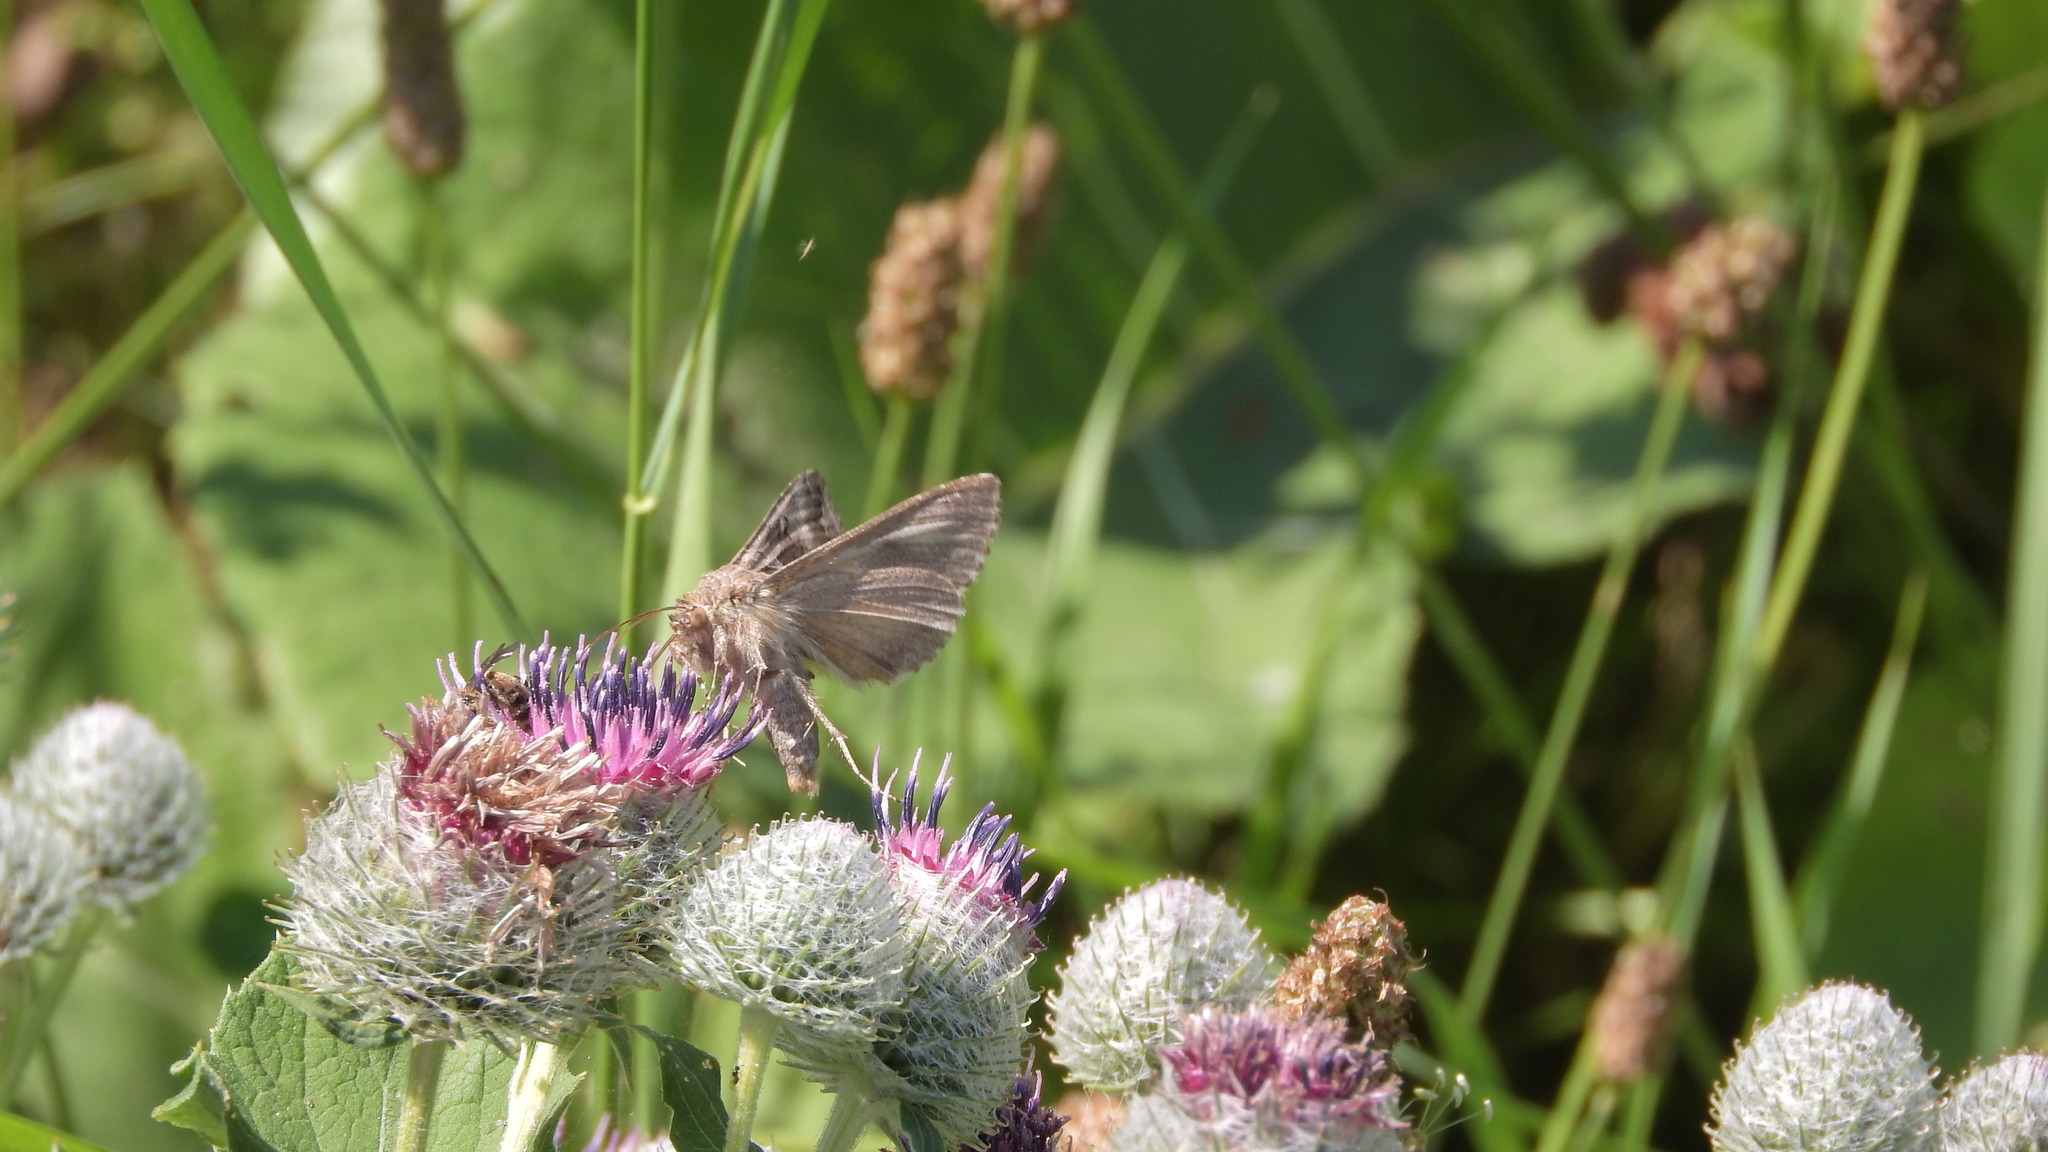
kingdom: Animalia
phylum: Arthropoda
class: Insecta
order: Lepidoptera
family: Noctuidae
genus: Autographa
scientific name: Autographa gamma
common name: Silver y
